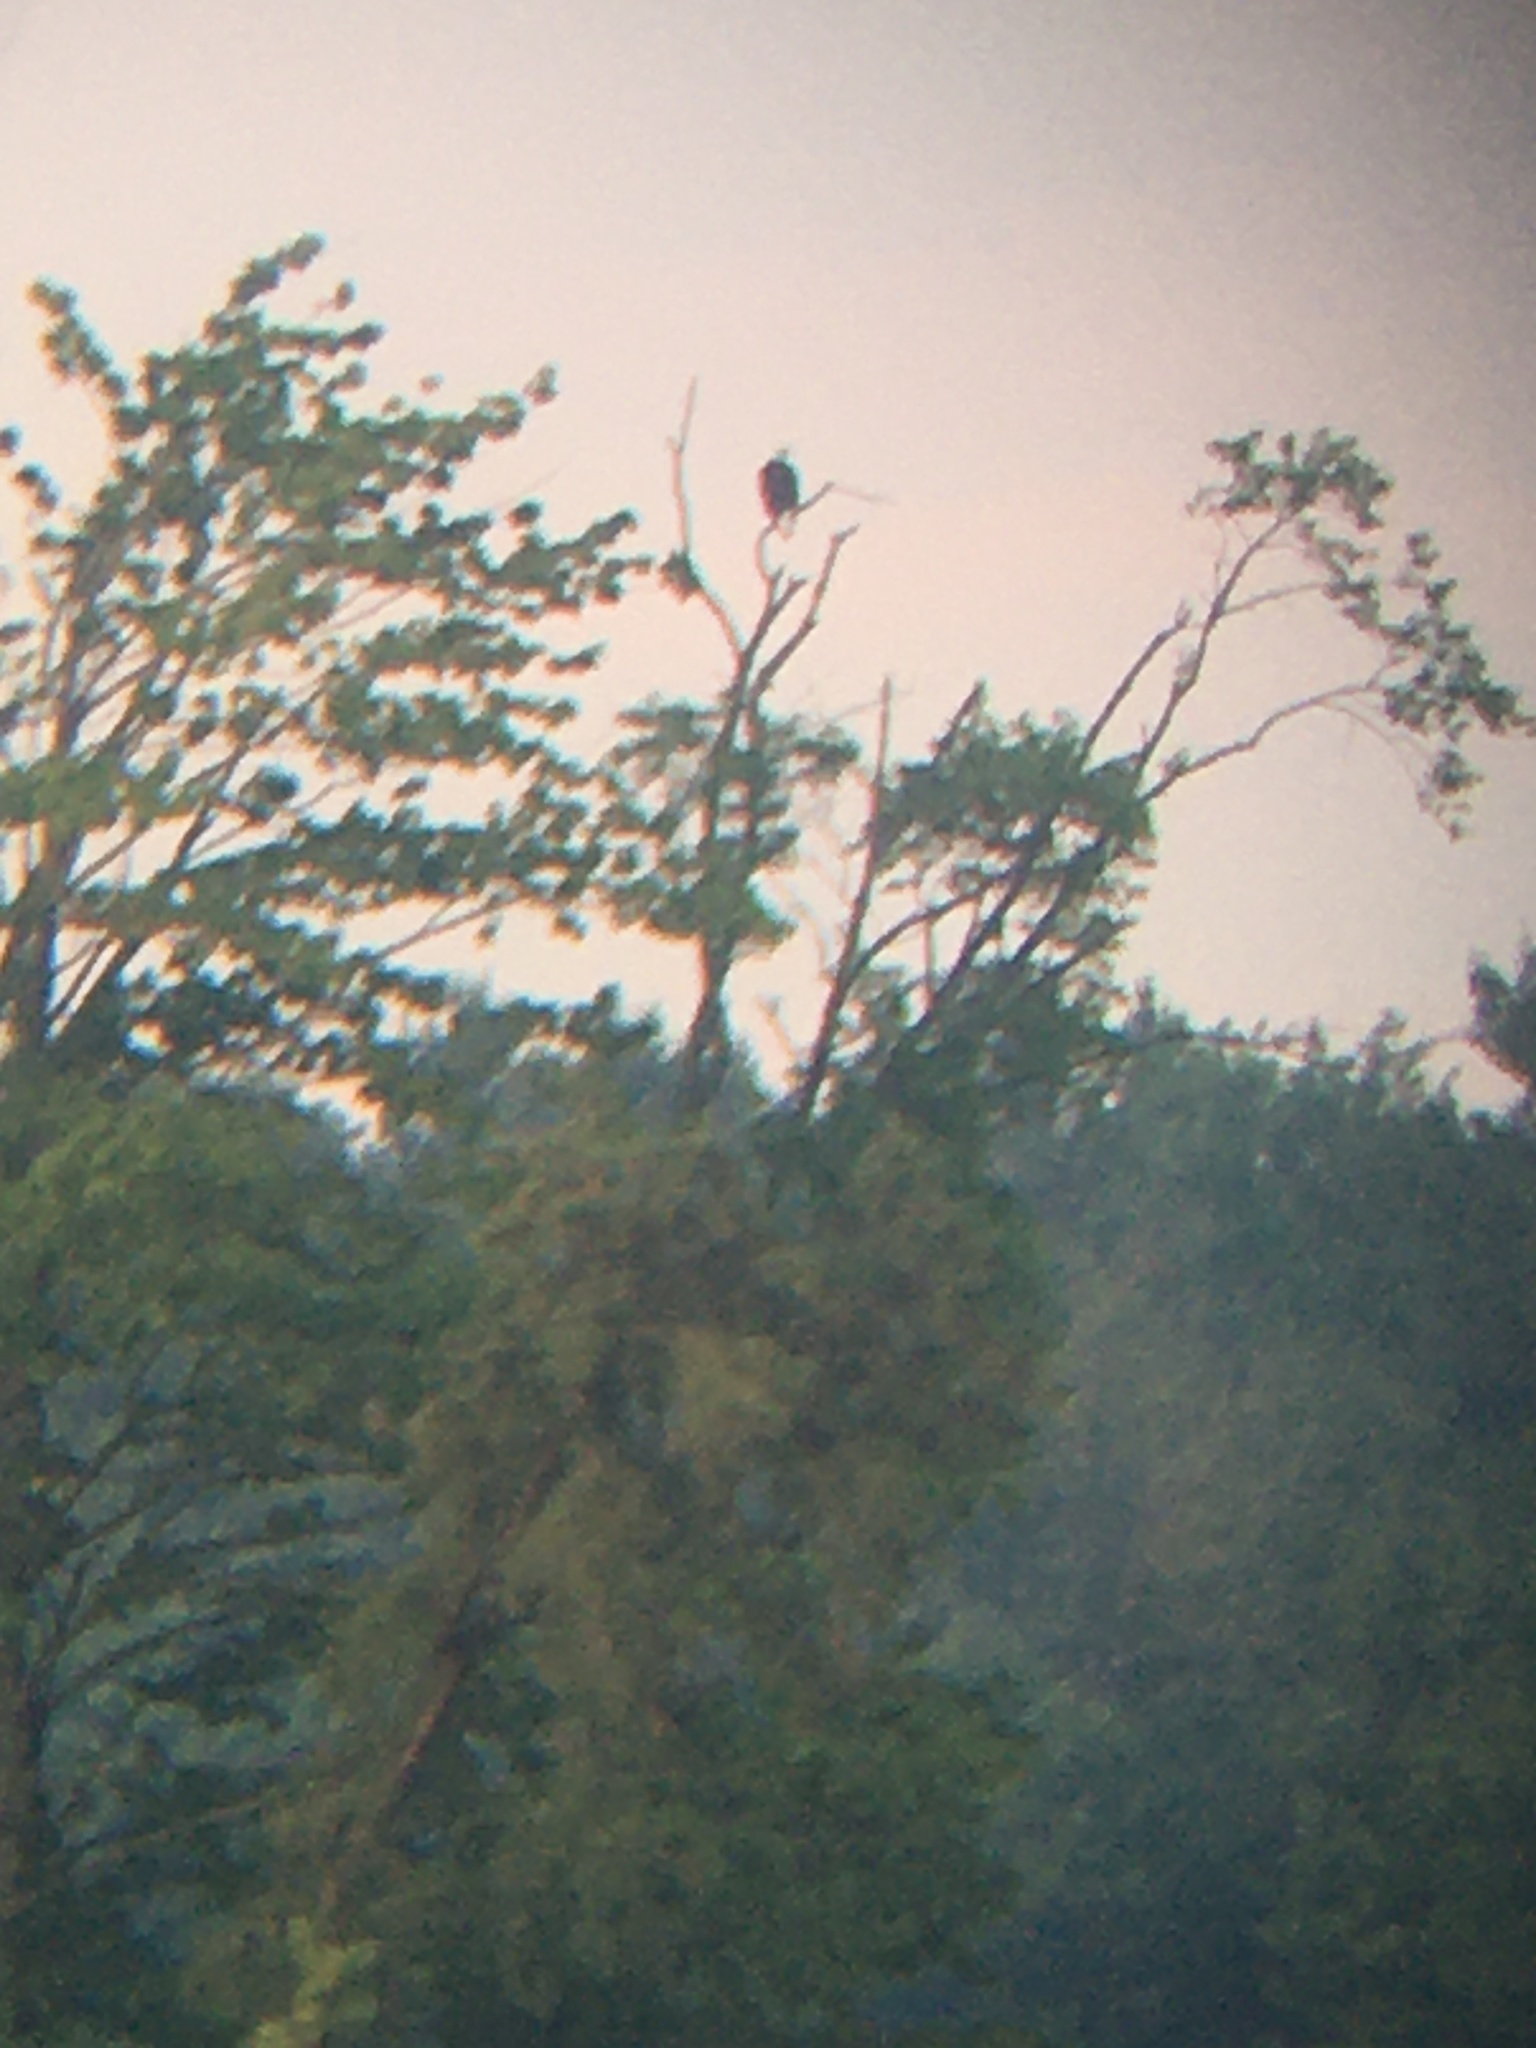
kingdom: Animalia
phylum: Chordata
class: Aves
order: Accipitriformes
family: Accipitridae
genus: Haliaeetus
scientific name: Haliaeetus leucocephalus
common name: Bald eagle
